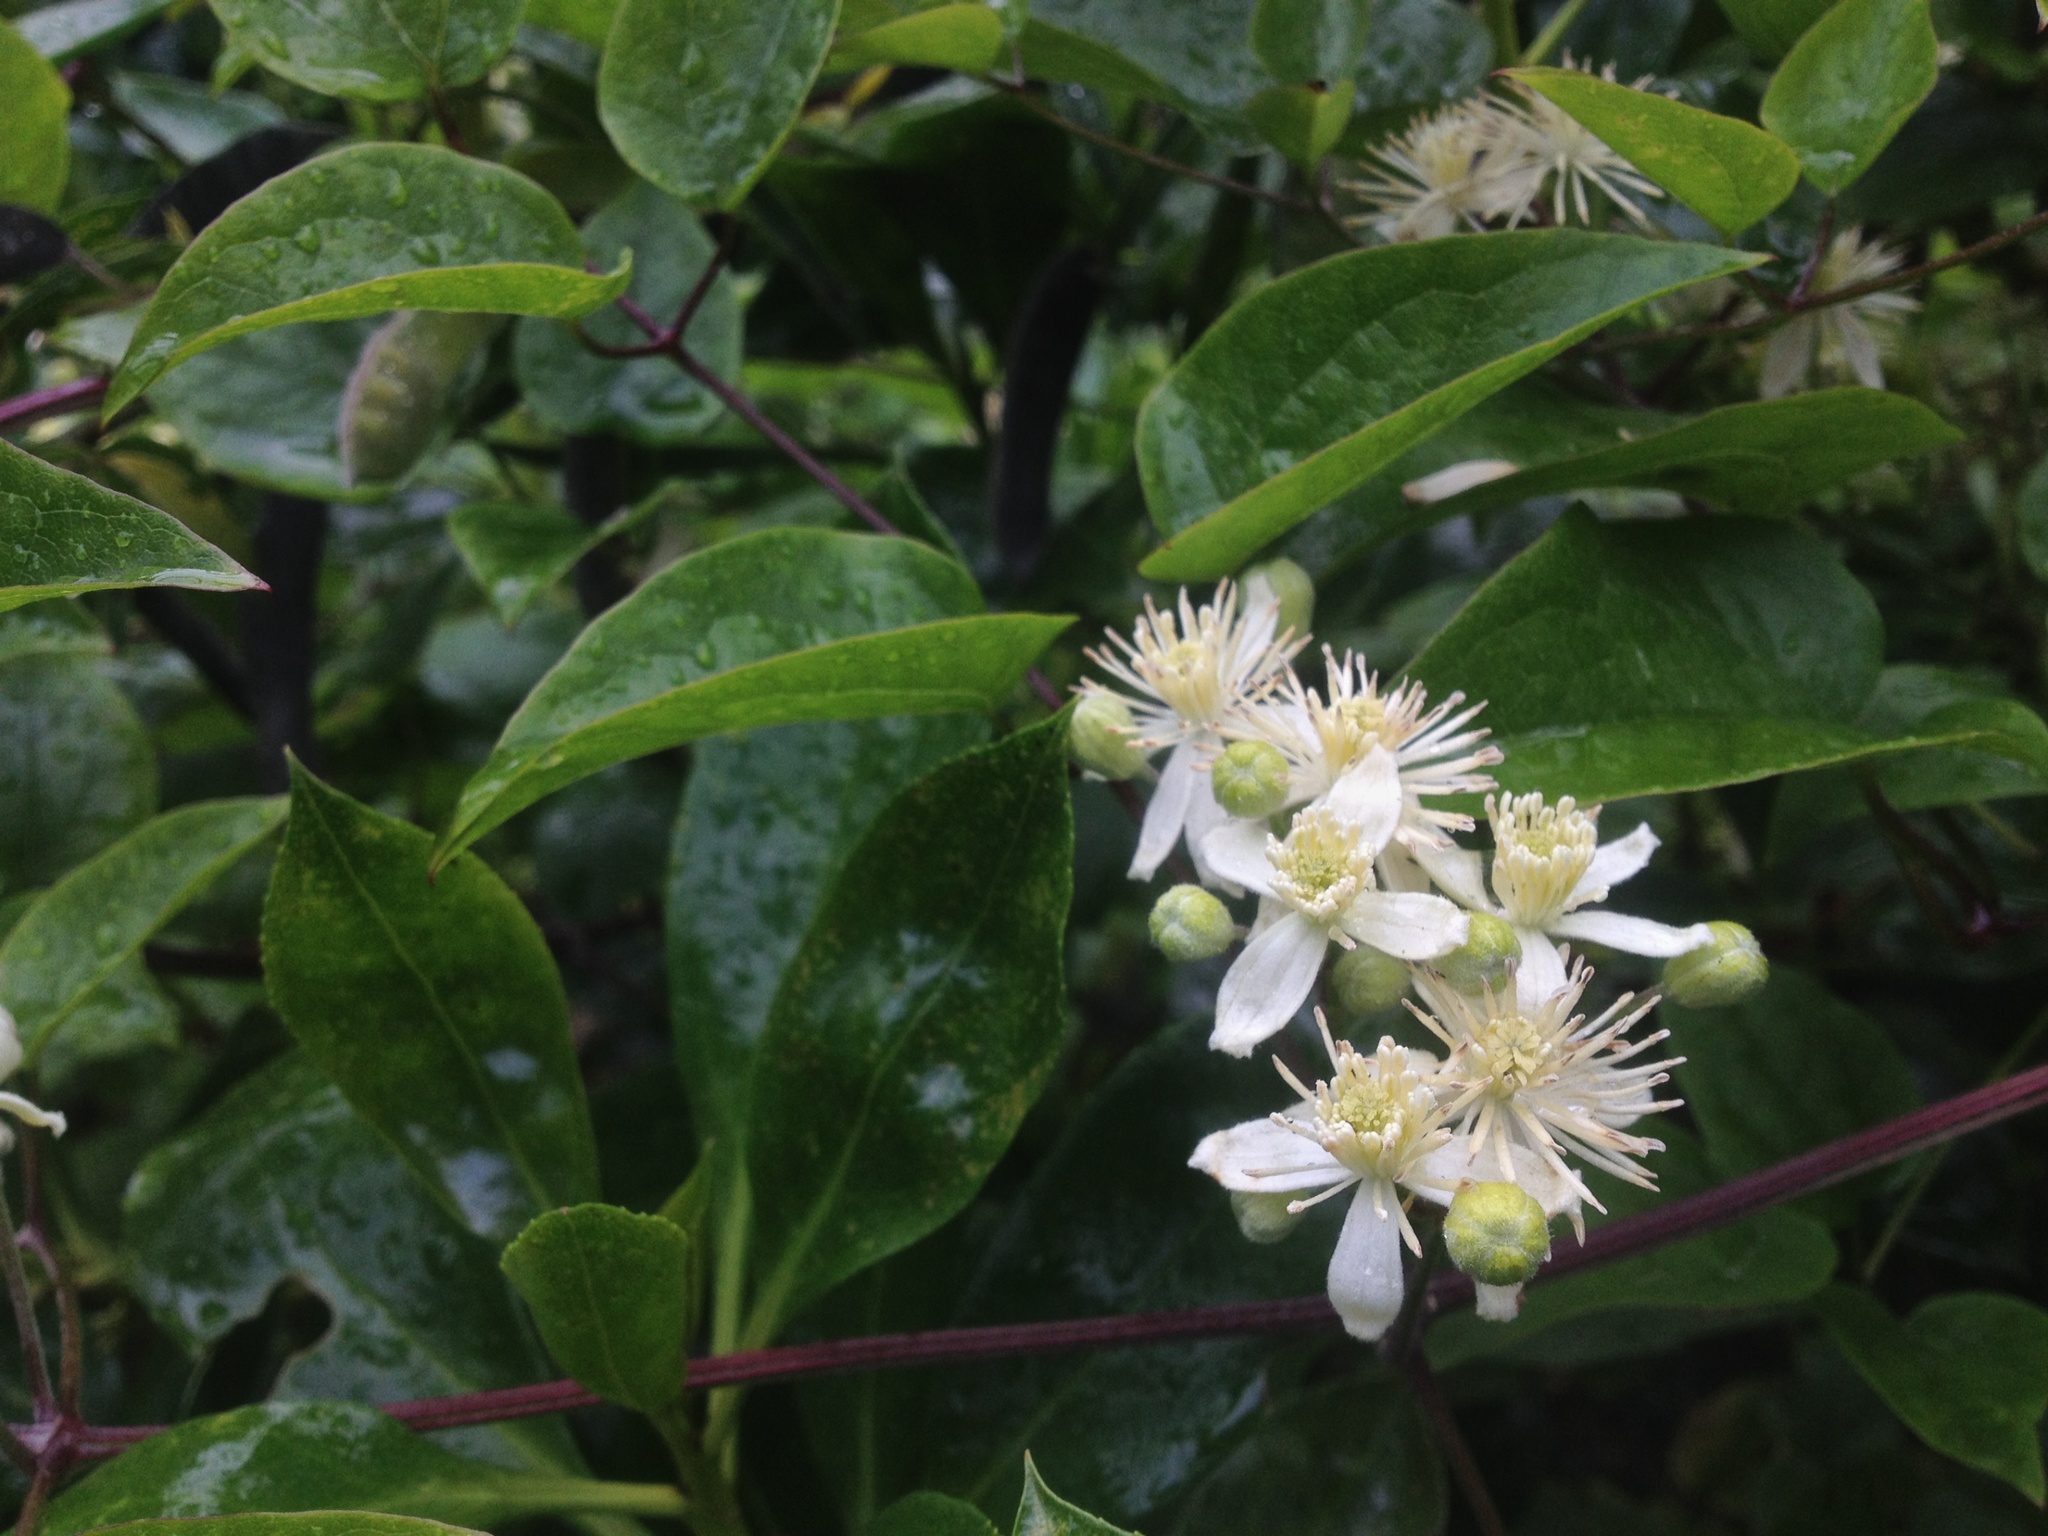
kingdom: Plantae
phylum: Tracheophyta
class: Magnoliopsida
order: Ranunculales
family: Ranunculaceae
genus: Clematis
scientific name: Clematis vitalba
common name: Evergreen clematis
